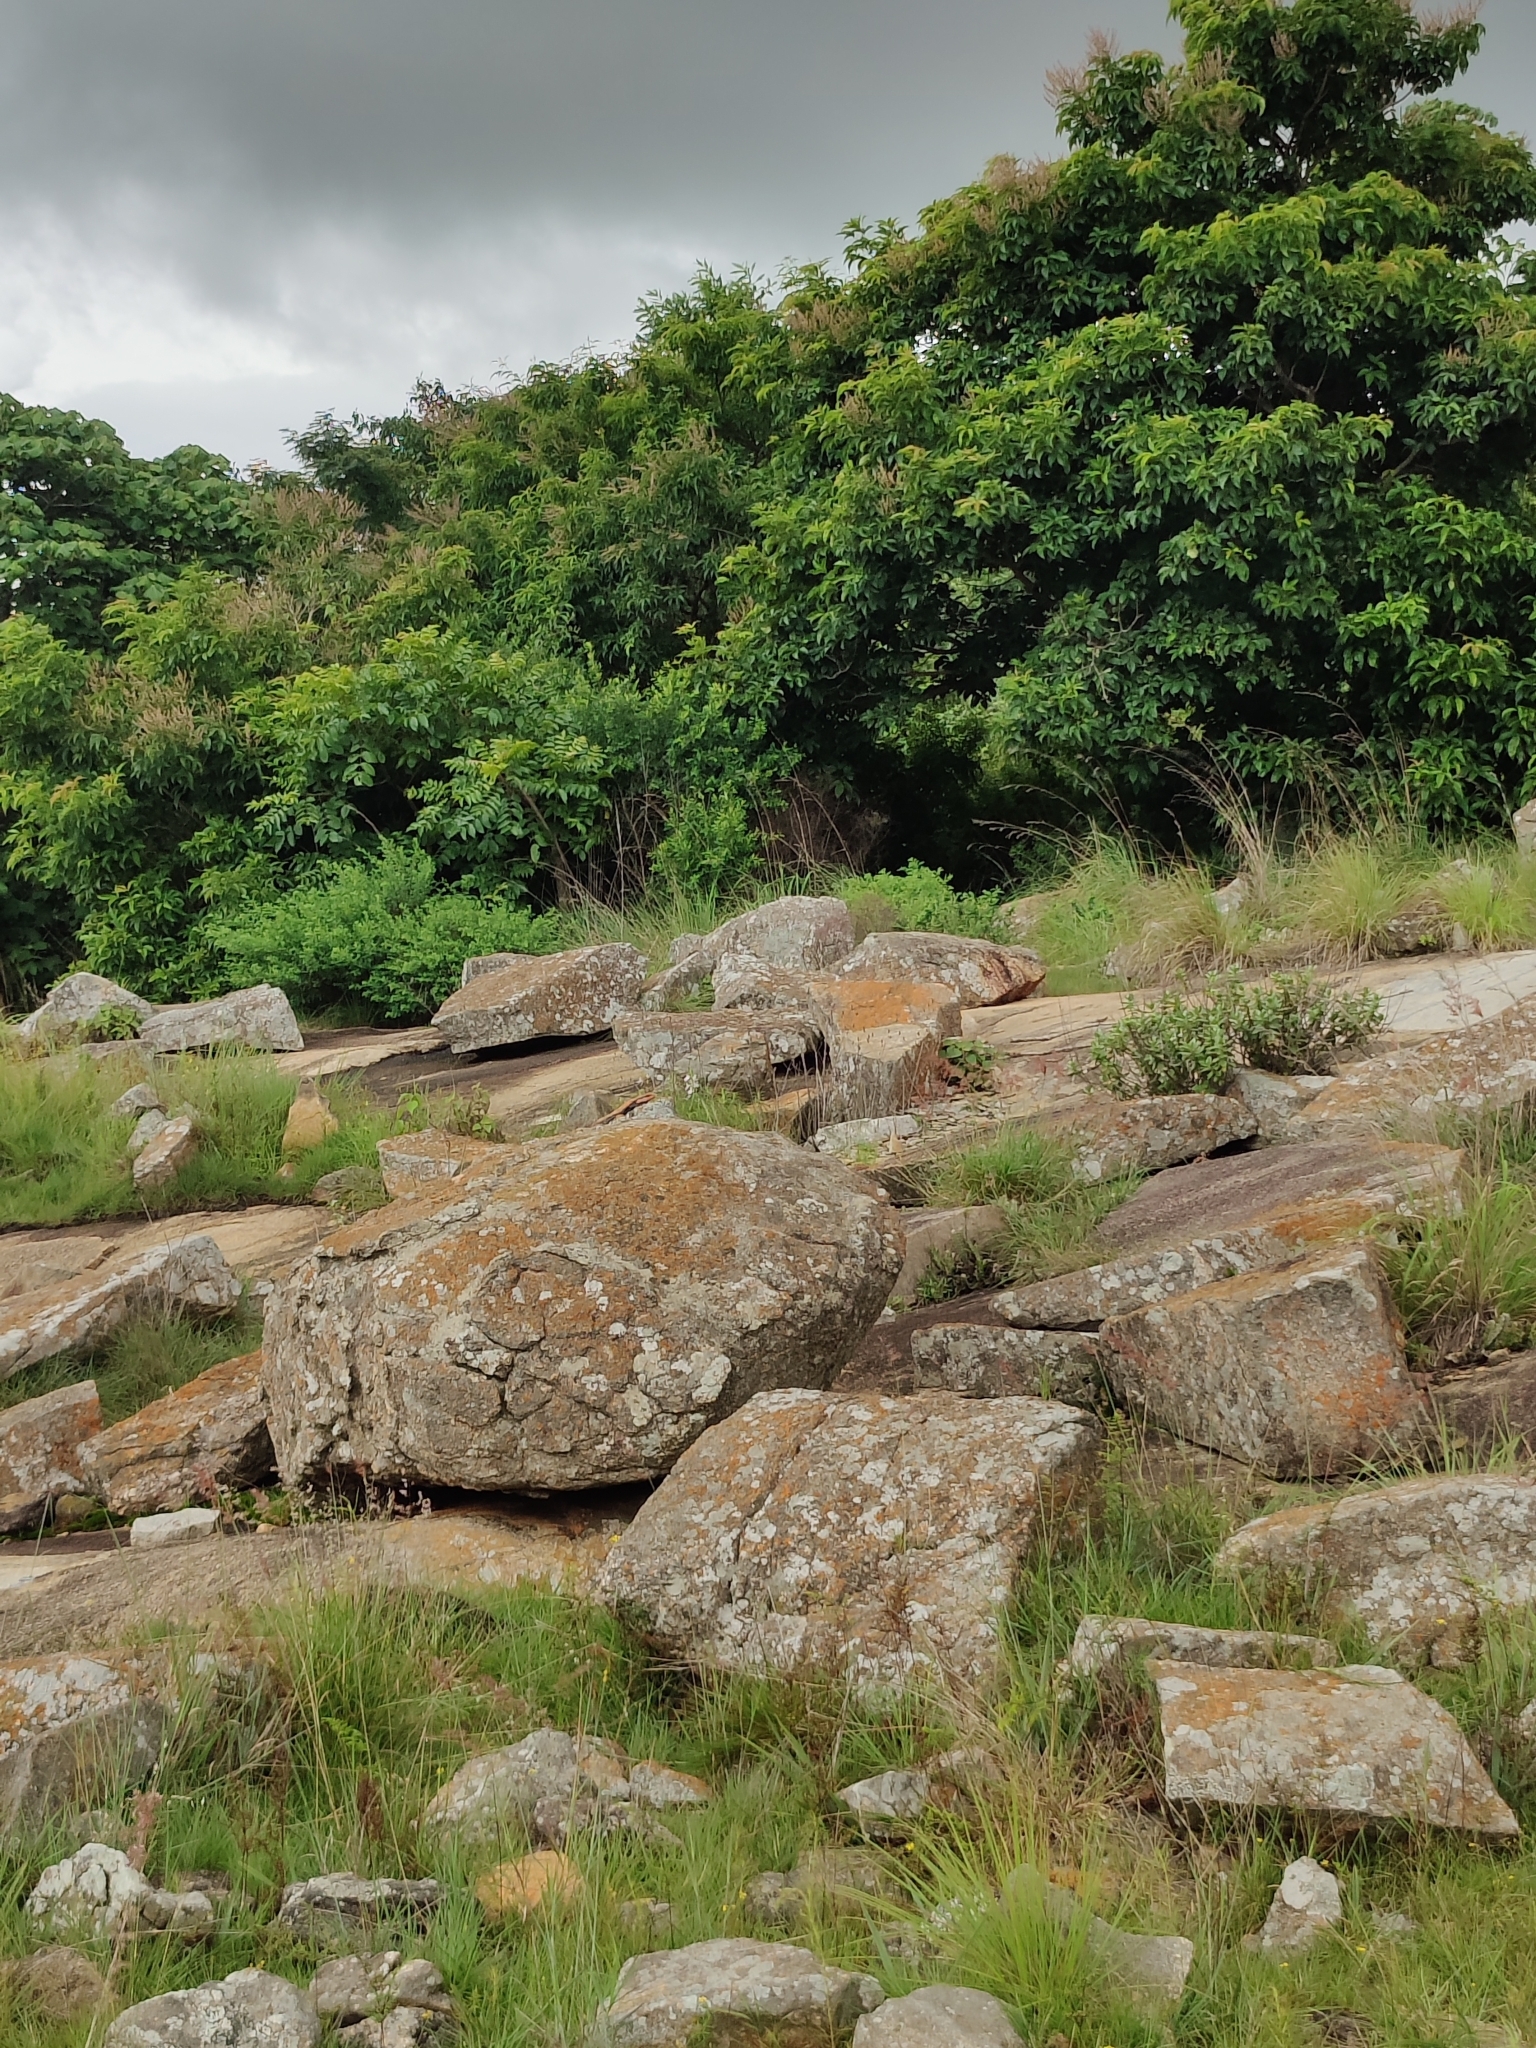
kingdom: Animalia
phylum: Chordata
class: Squamata
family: Agamidae
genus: Psammophilus
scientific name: Psammophilus dorsalis
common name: South indian rock agama
